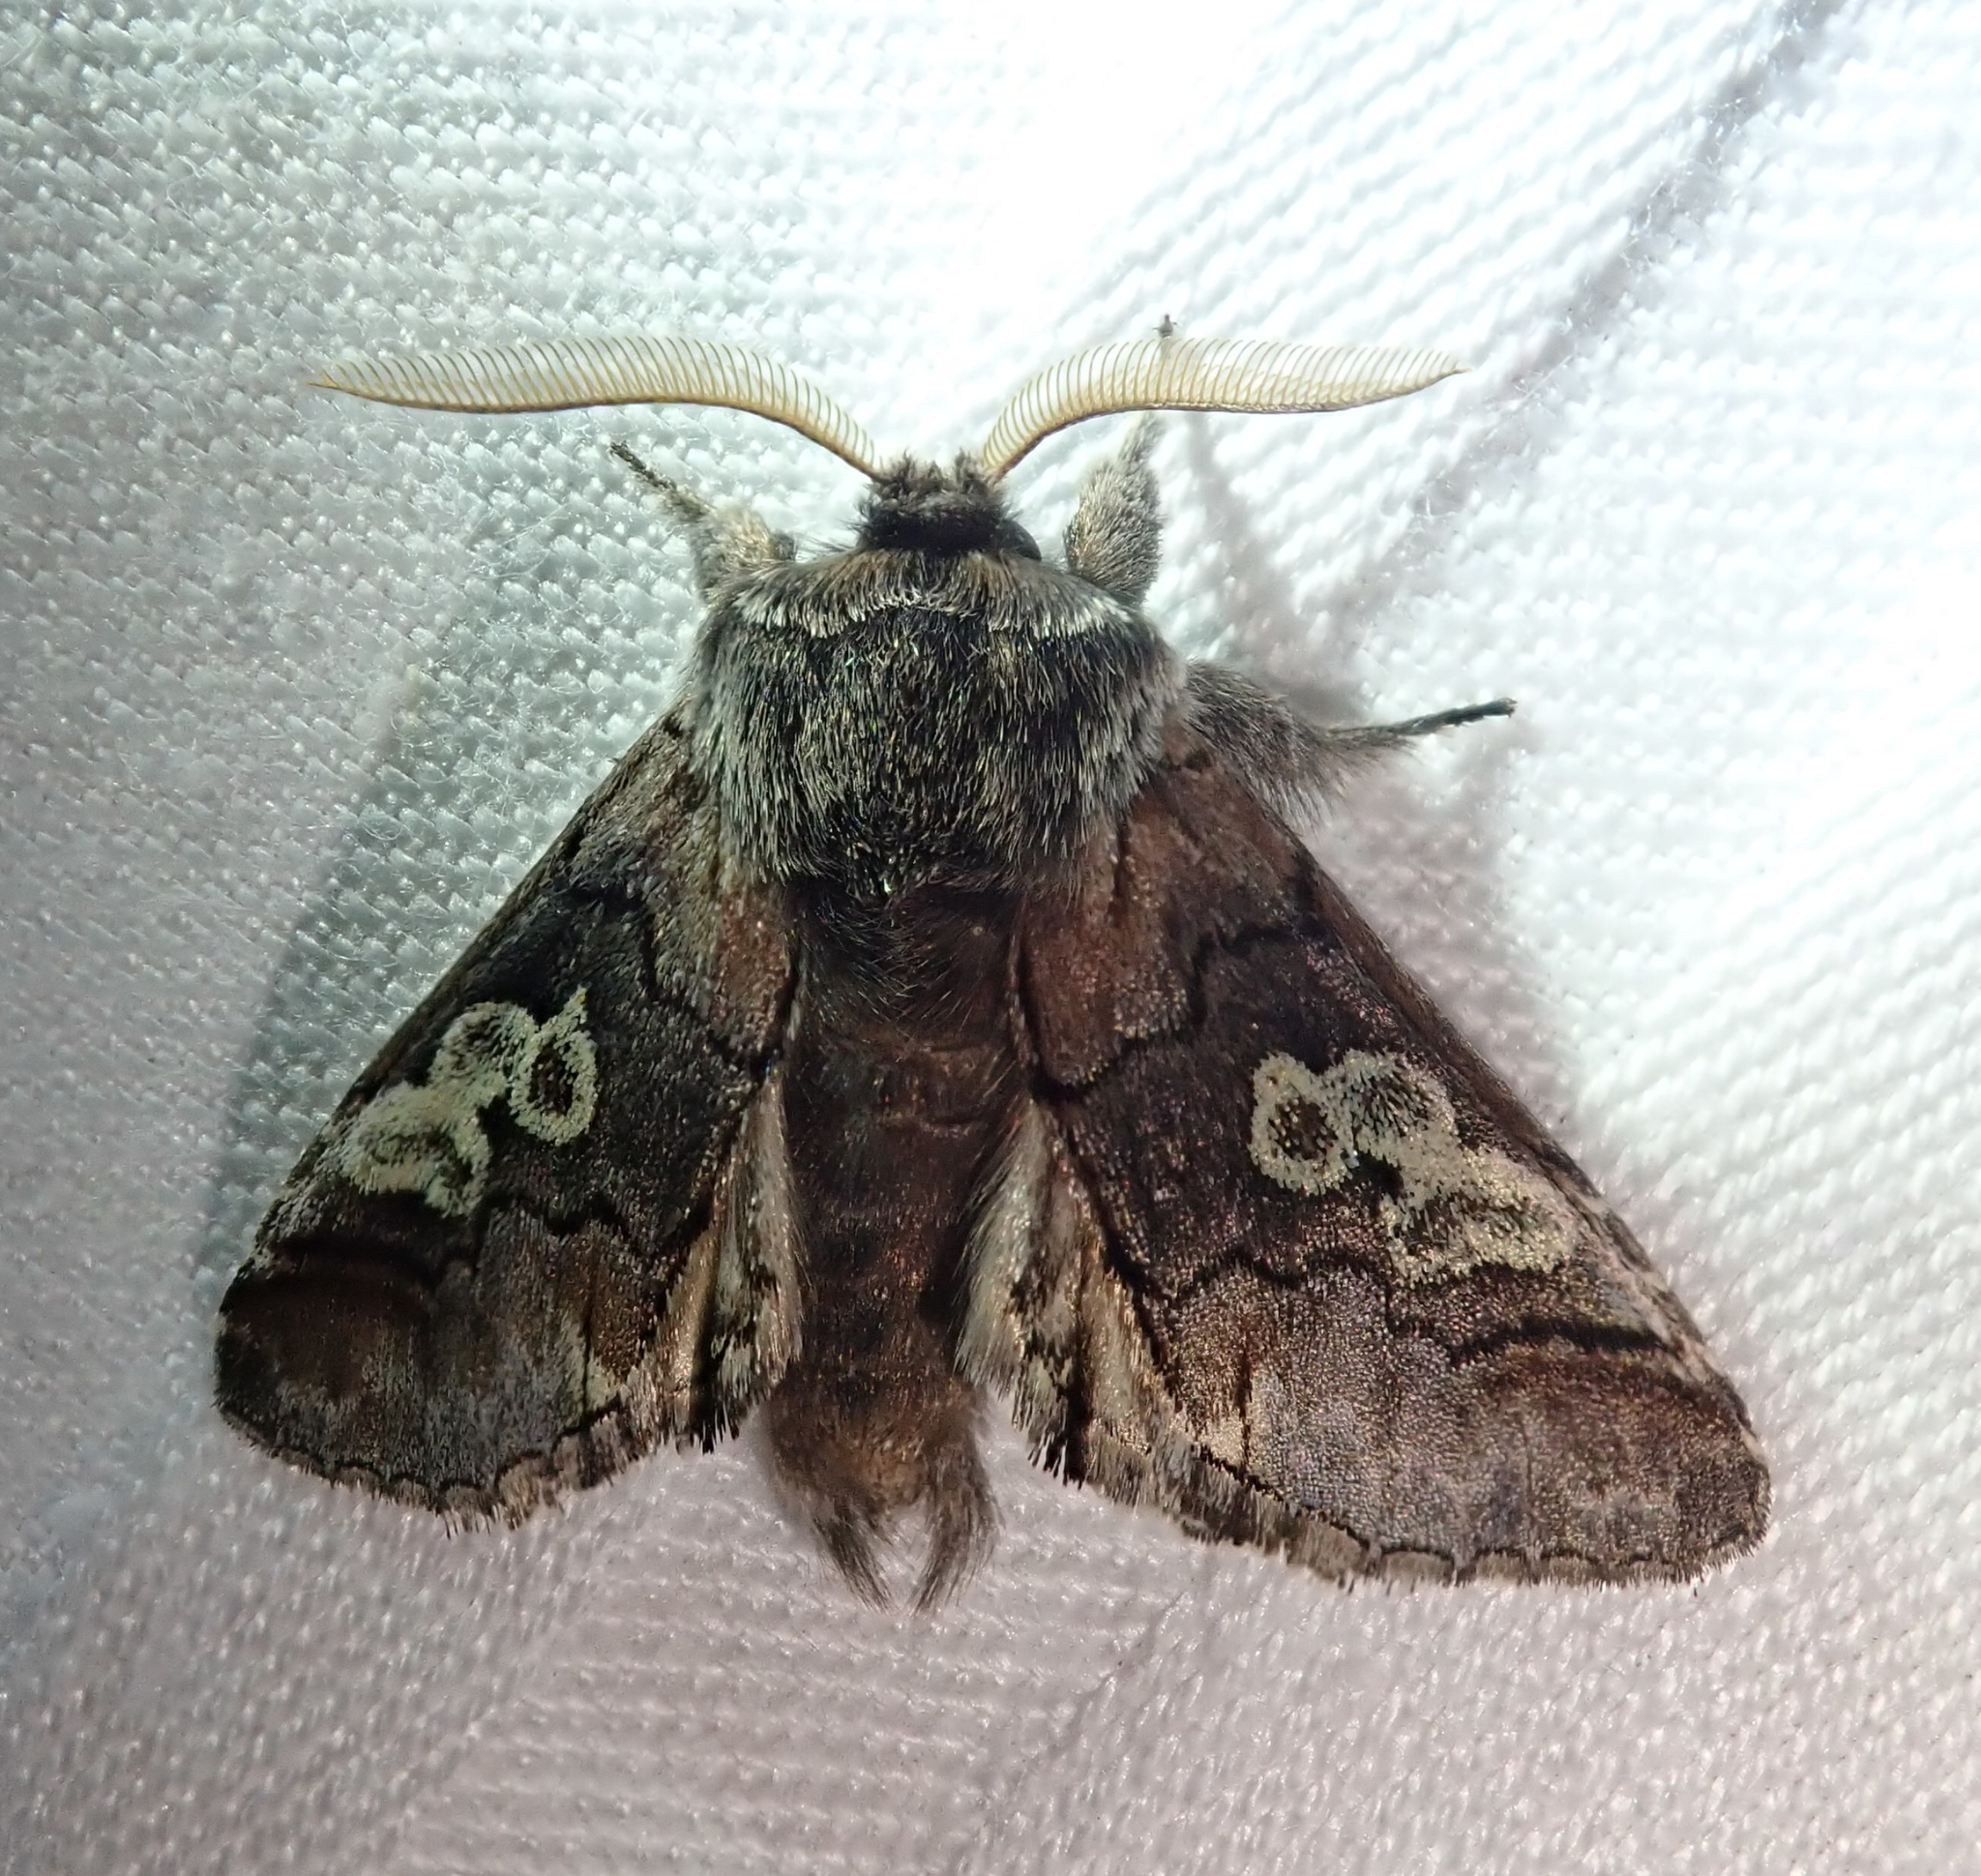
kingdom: Animalia
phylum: Arthropoda
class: Insecta
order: Lepidoptera
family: Noctuidae
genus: Diloba
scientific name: Diloba caeruleocephala
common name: Figure of eight
